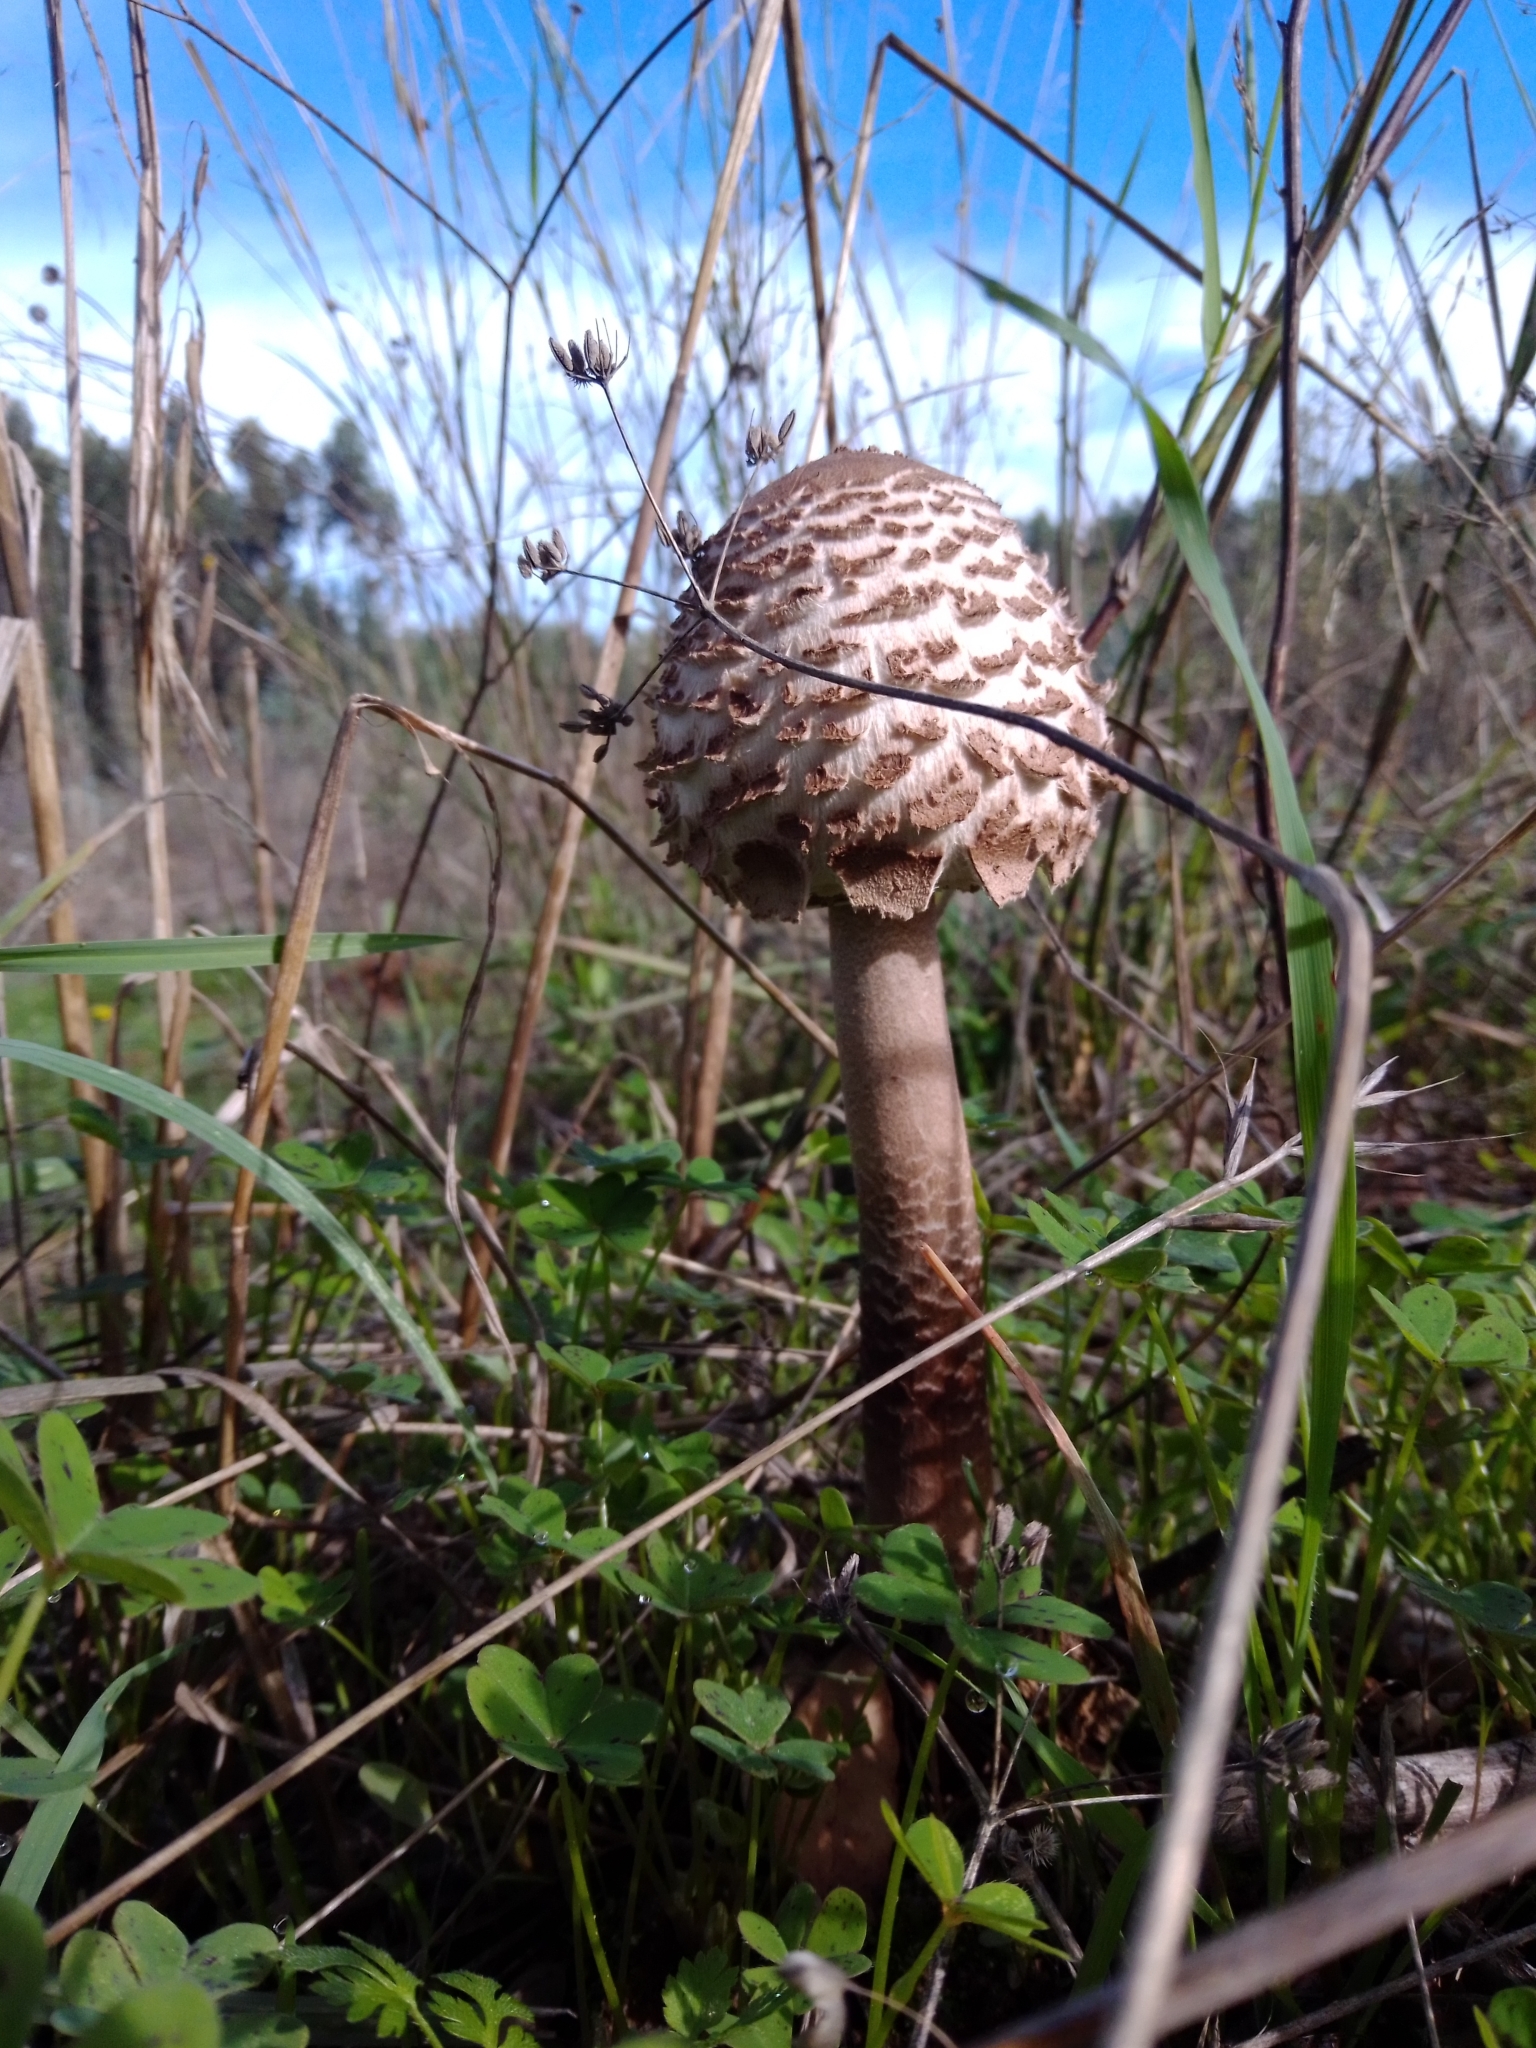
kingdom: Fungi
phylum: Basidiomycota
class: Agaricomycetes
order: Agaricales
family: Agaricaceae
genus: Macrolepiota
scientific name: Macrolepiota procera
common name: Parasol
